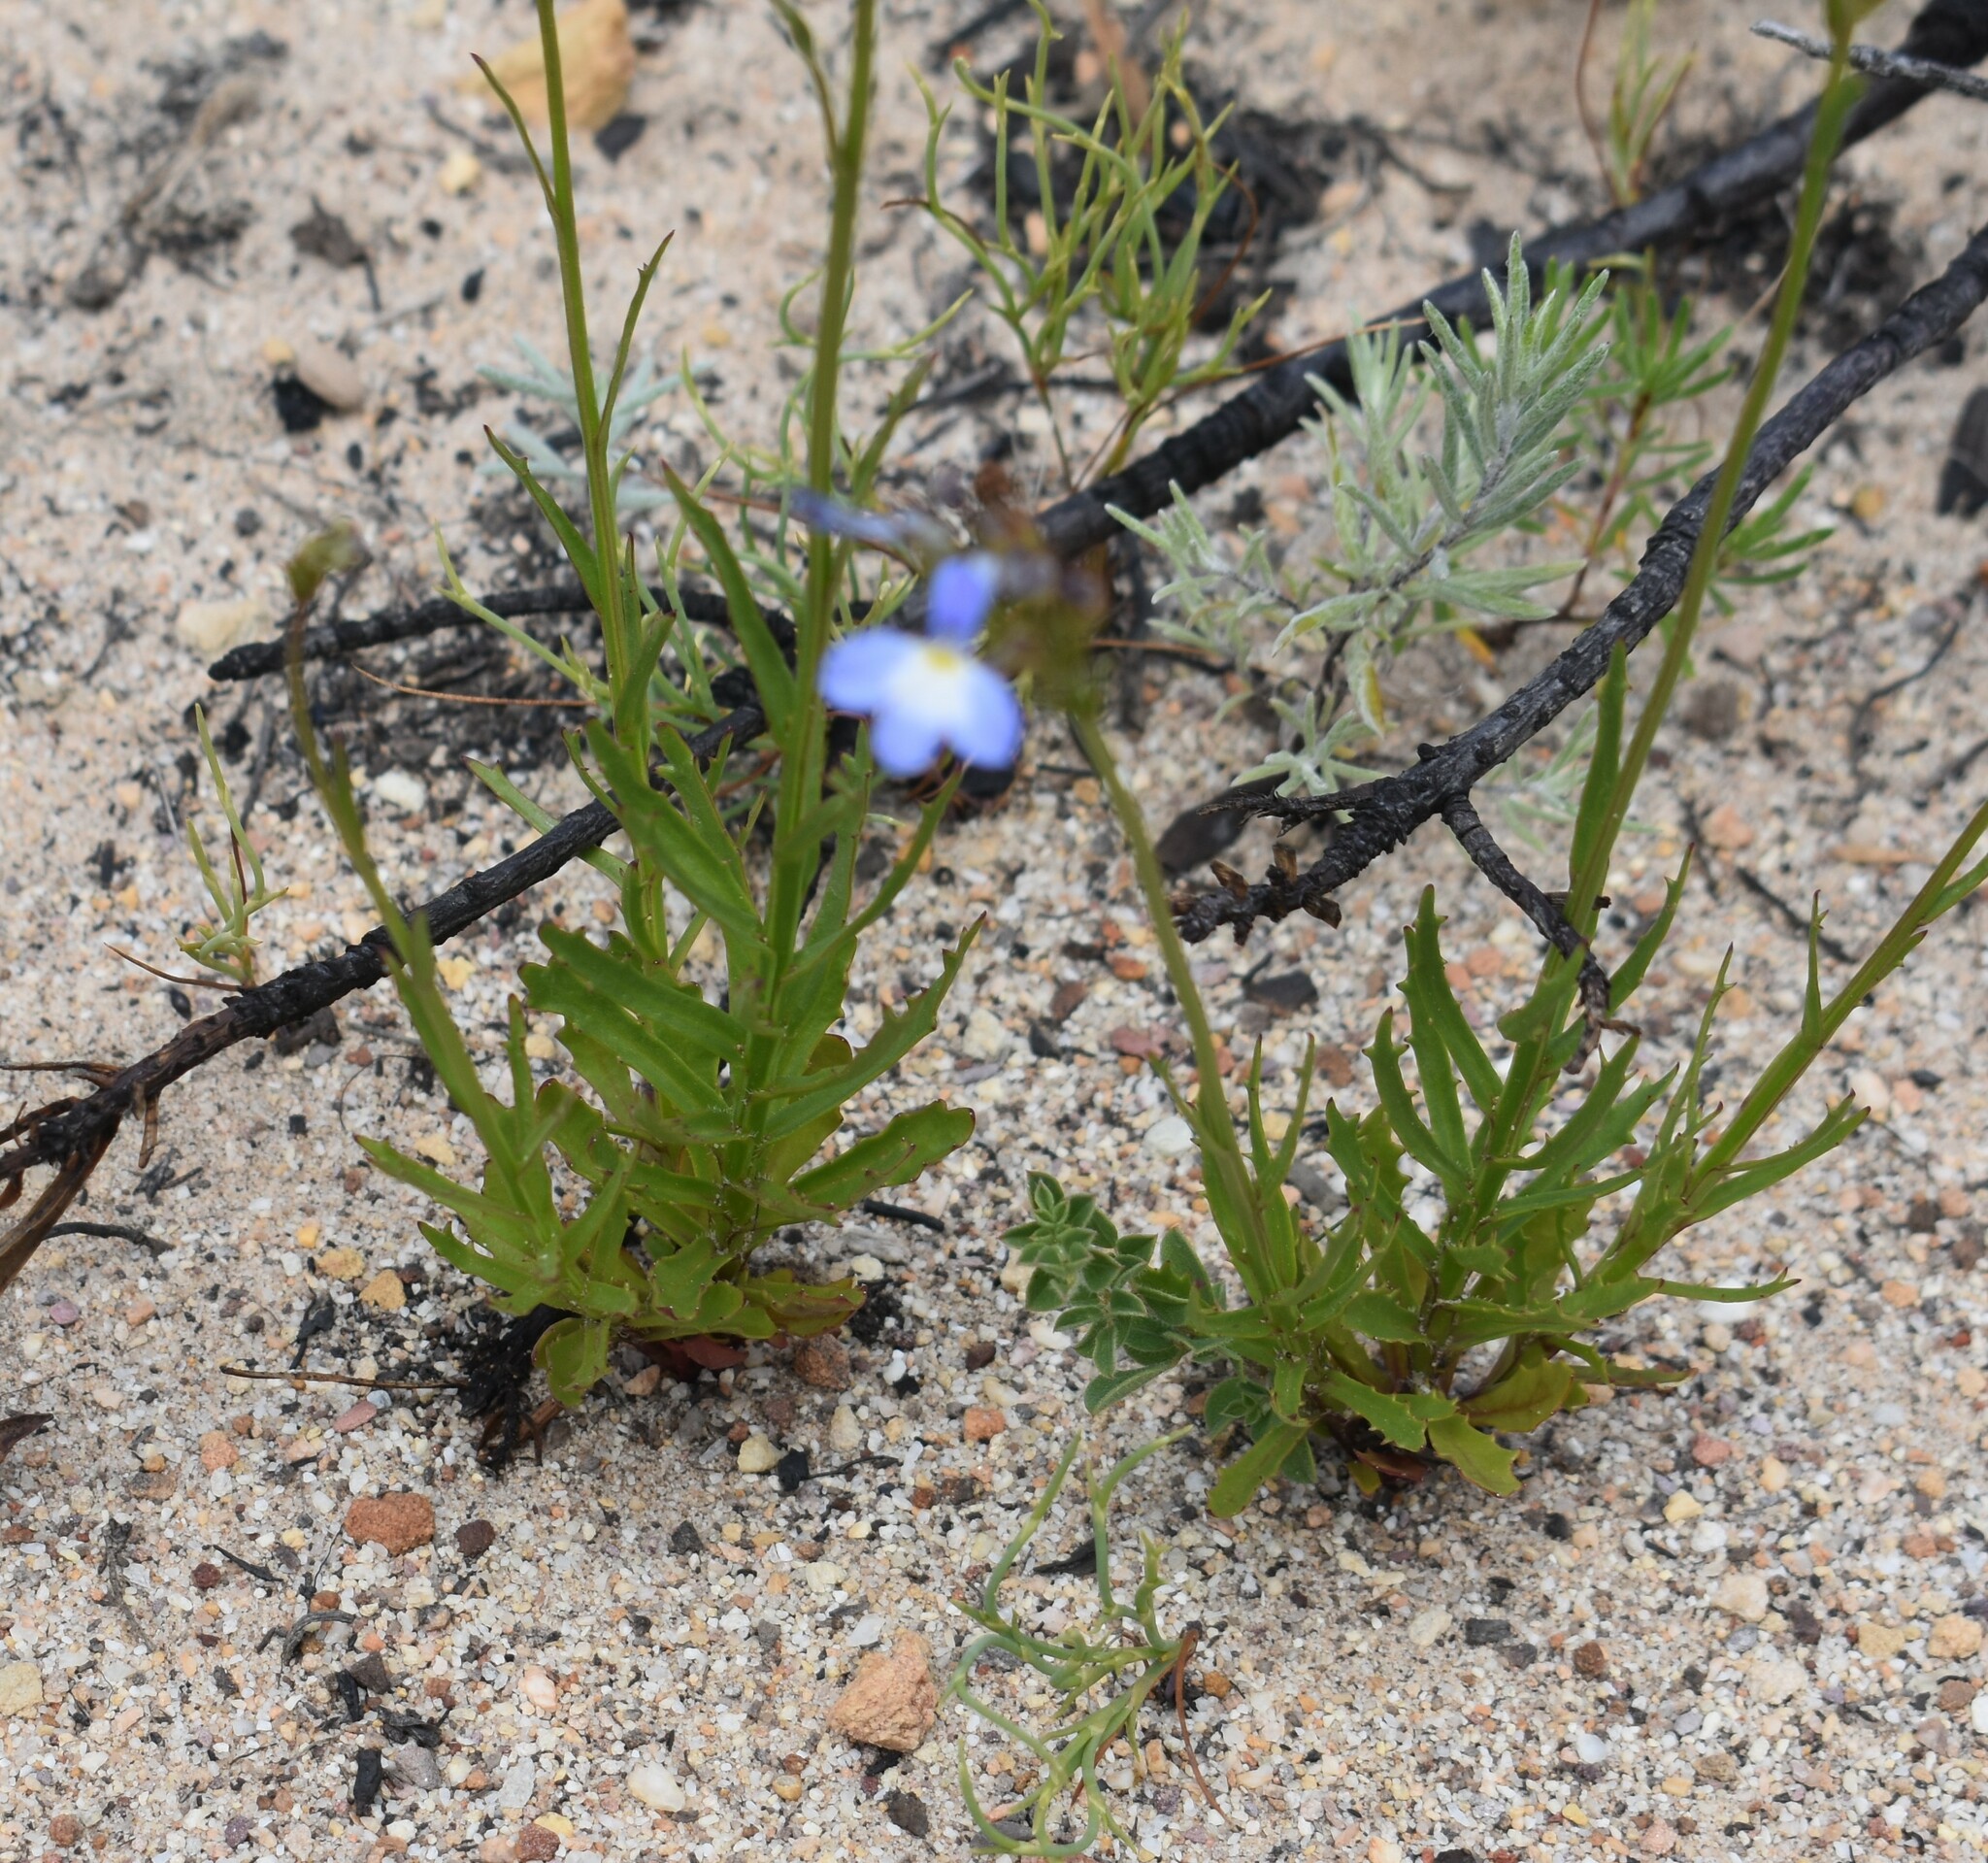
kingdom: Plantae
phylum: Tracheophyta
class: Magnoliopsida
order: Asterales
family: Campanulaceae
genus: Lobelia
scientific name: Lobelia comosa
